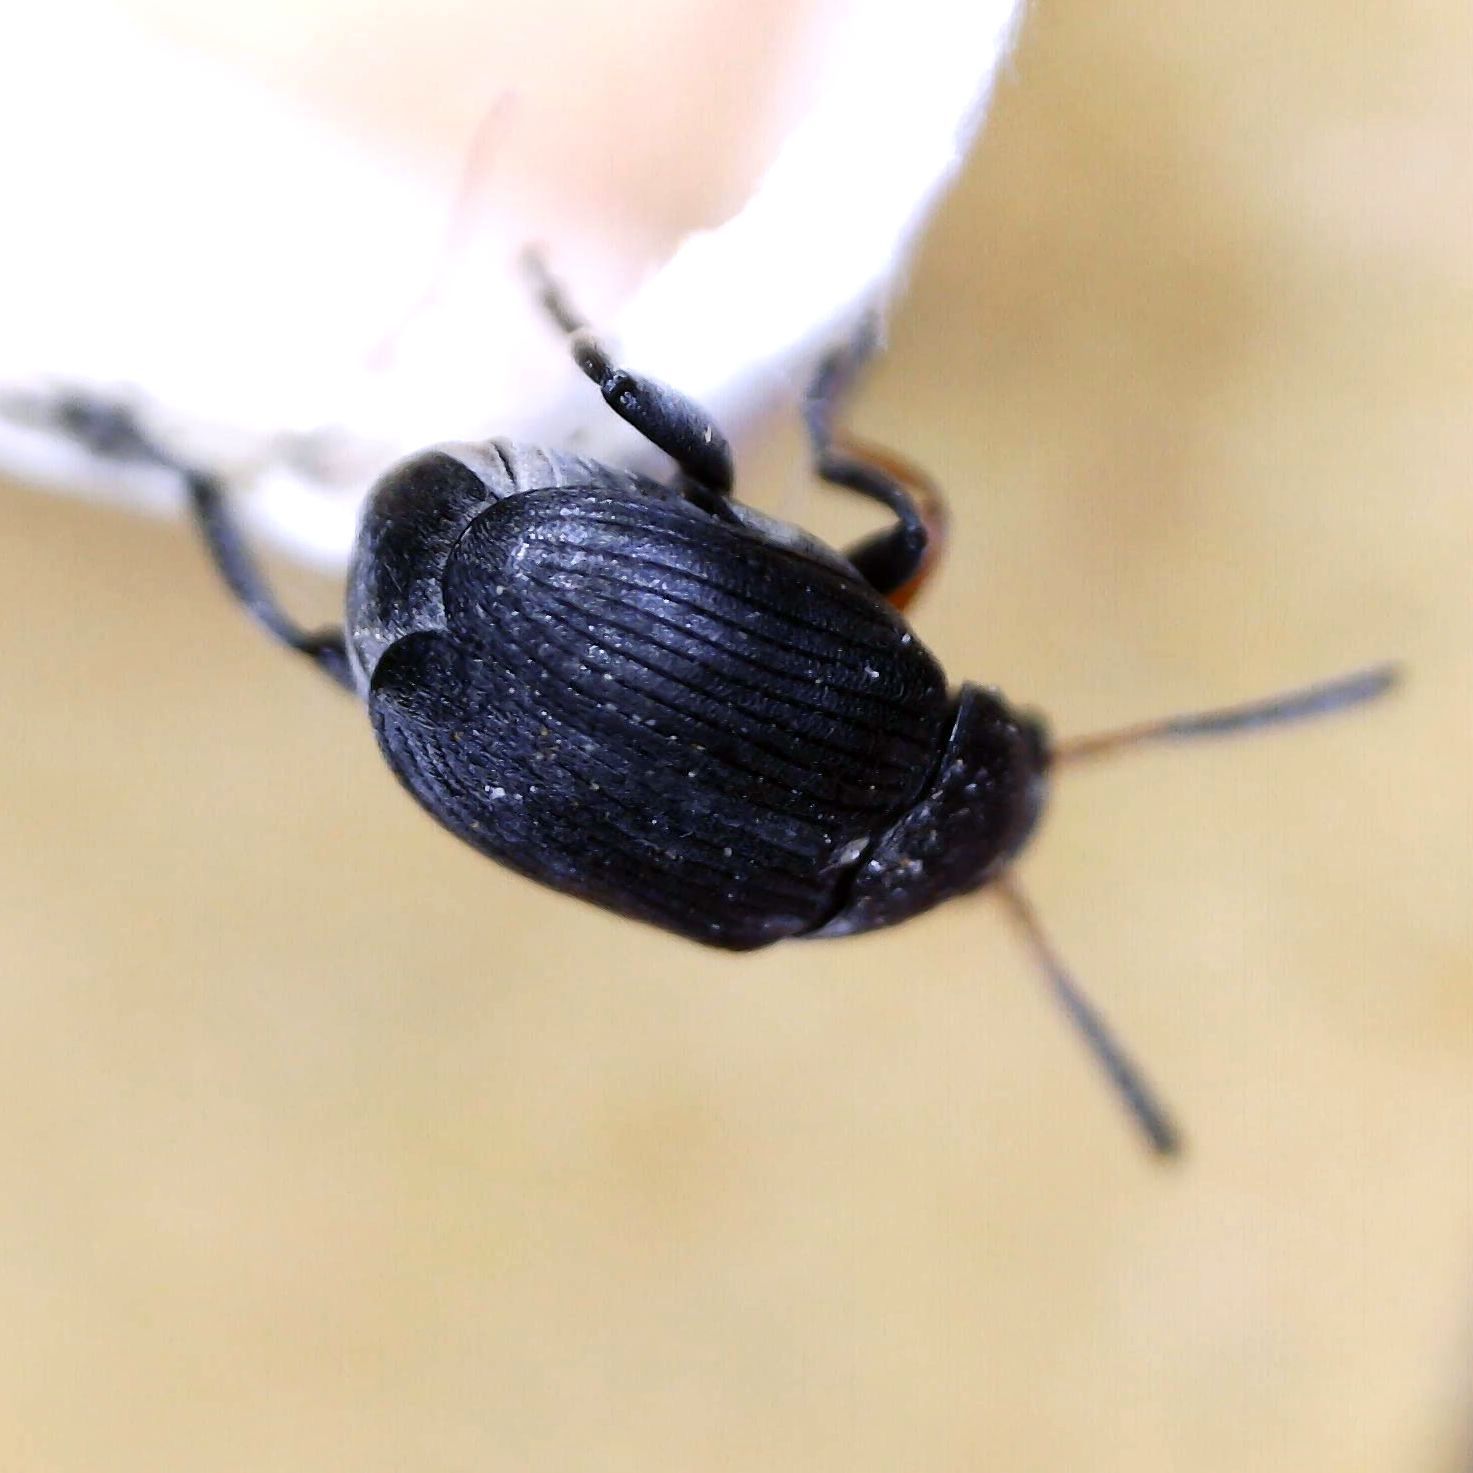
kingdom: Animalia
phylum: Arthropoda
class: Insecta
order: Coleoptera
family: Chrysomelidae
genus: Bruchus
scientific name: Bruchus loti
